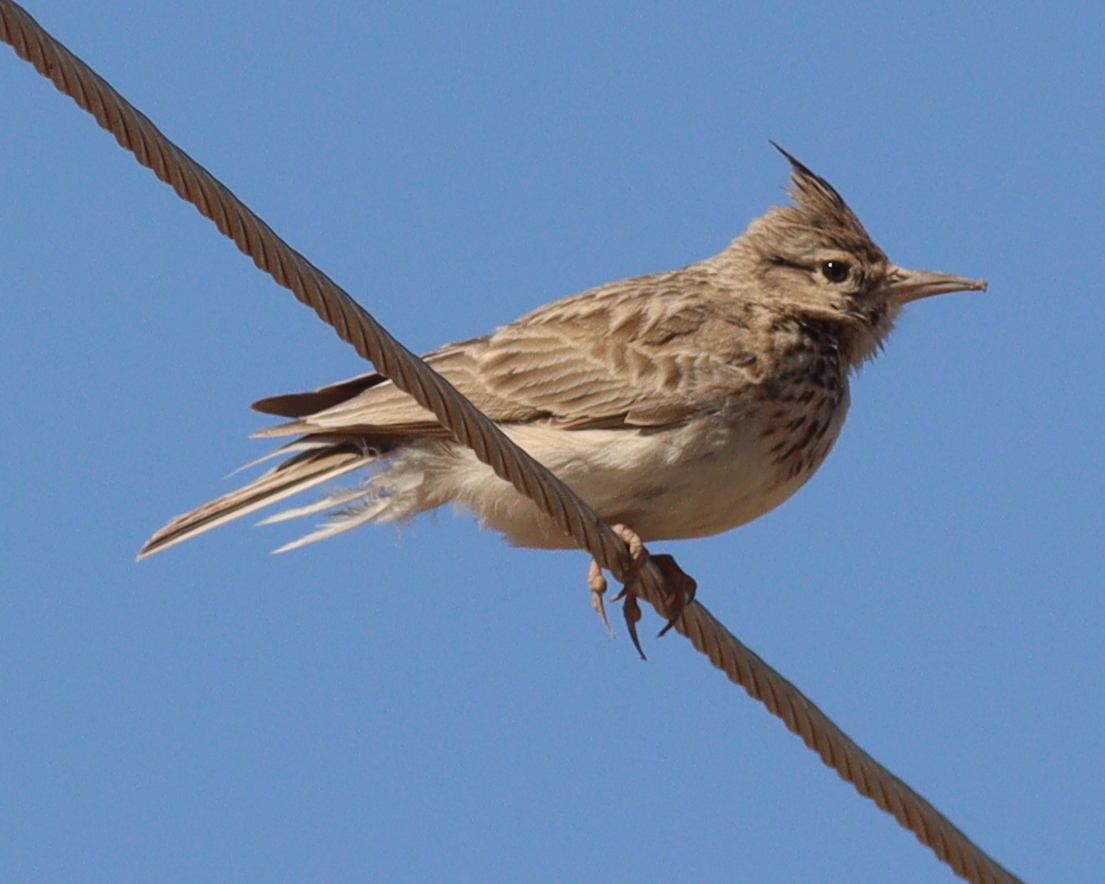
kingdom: Animalia
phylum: Chordata
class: Aves
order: Passeriformes
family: Alaudidae
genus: Galerida
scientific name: Galerida cristata
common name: Crested lark
